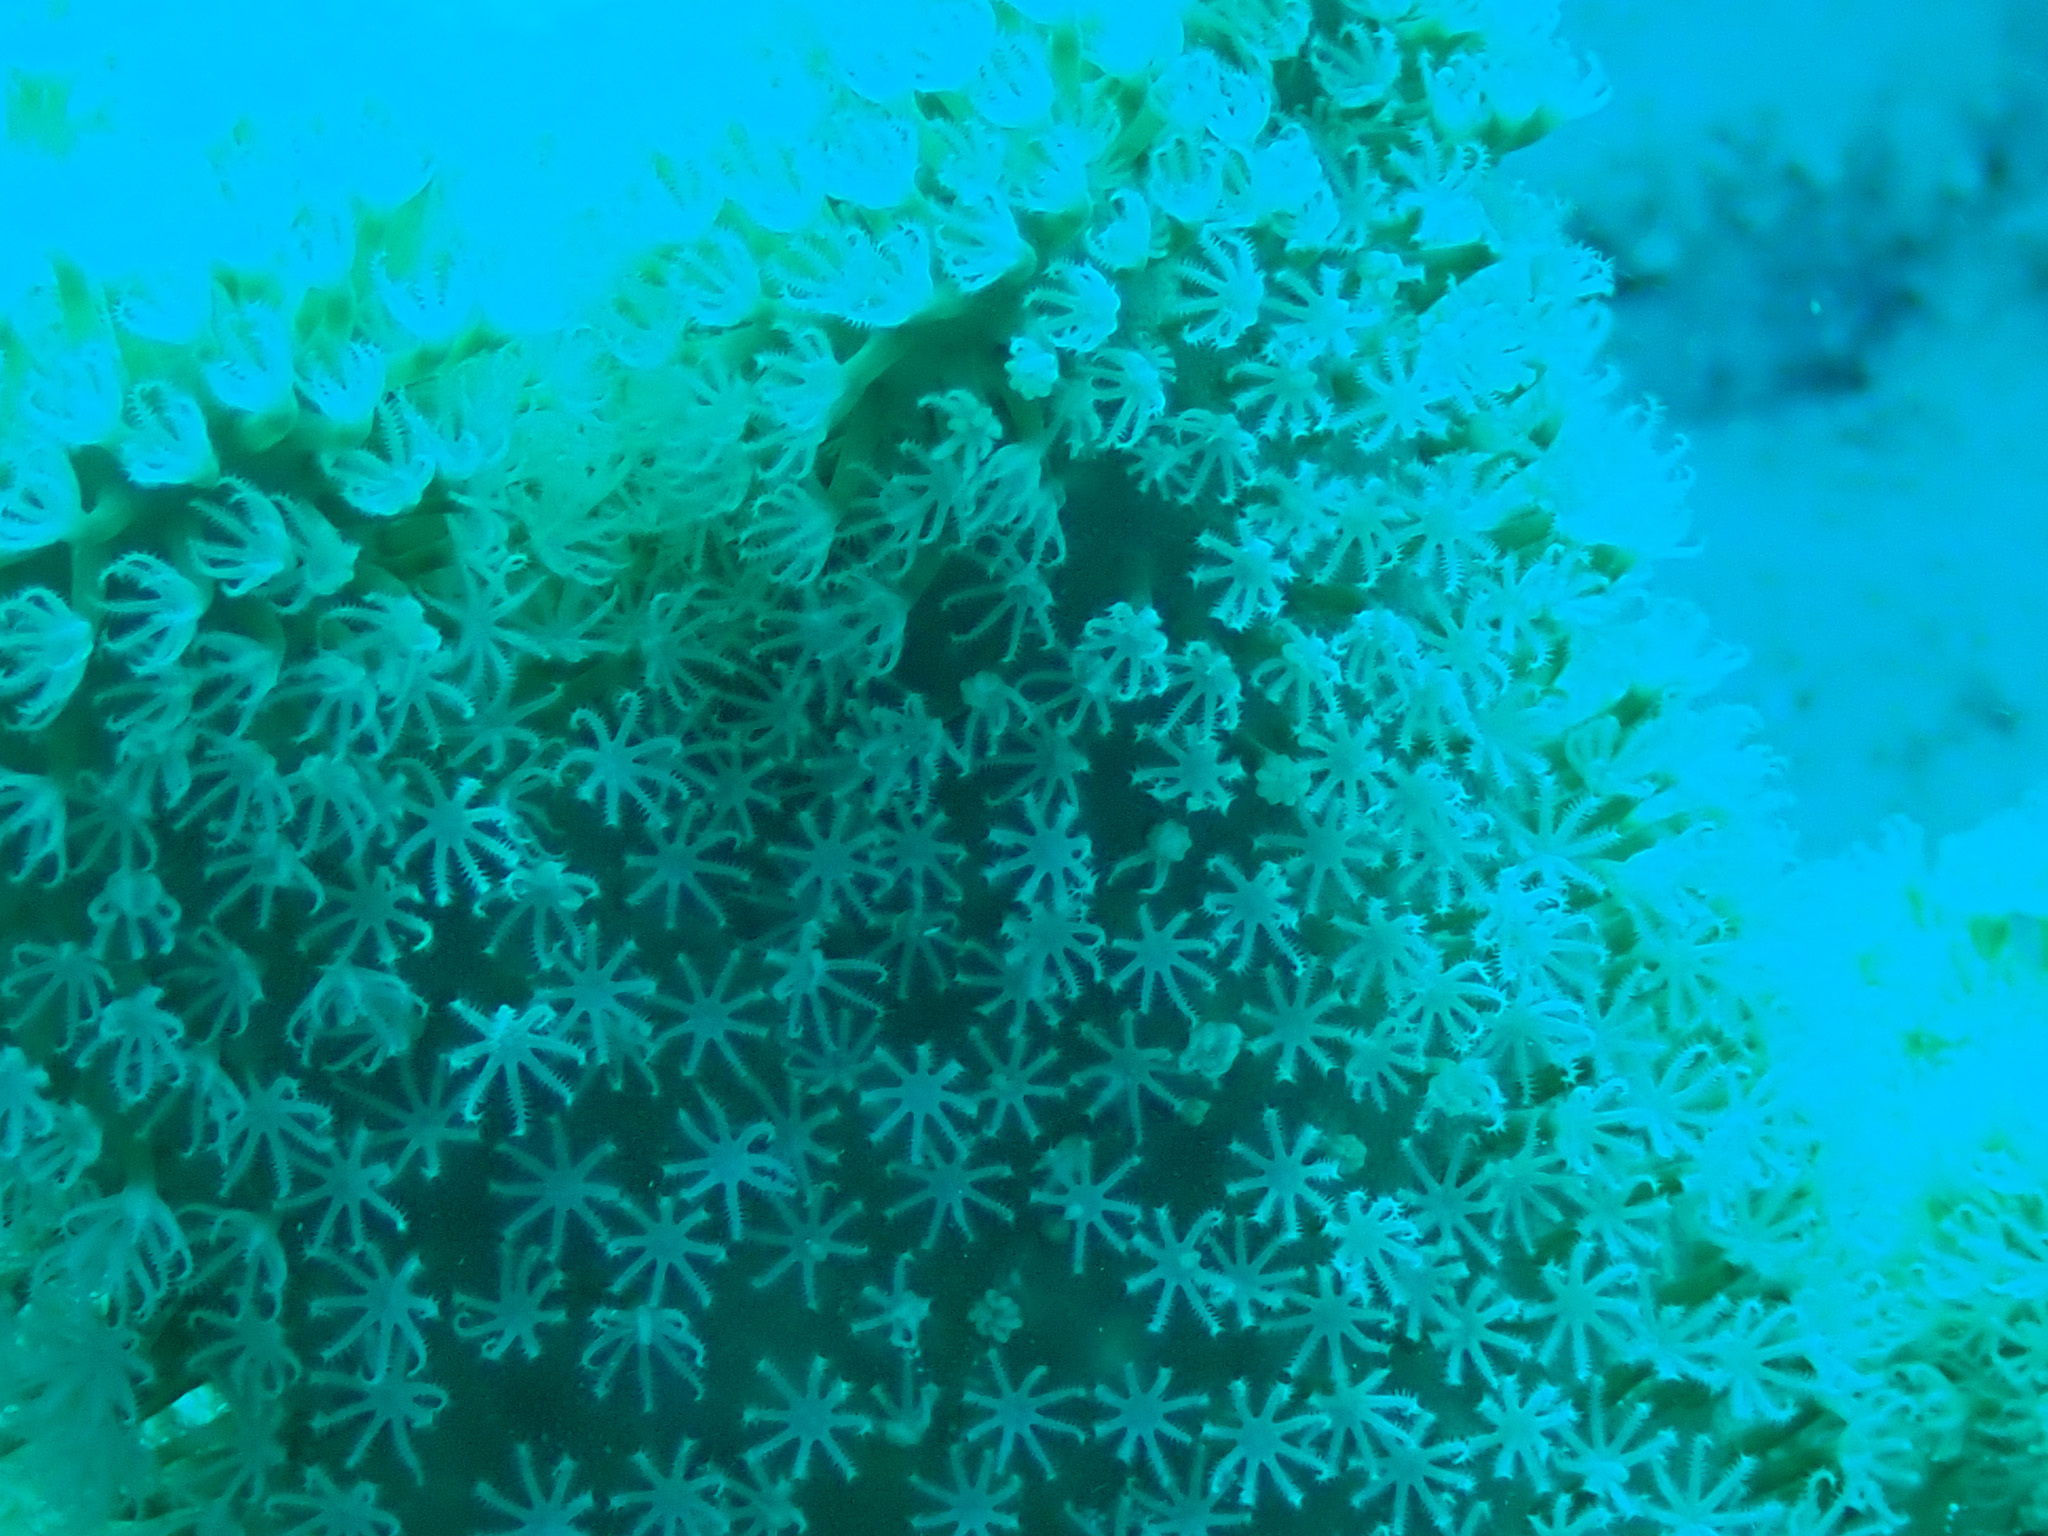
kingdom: Animalia
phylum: Cnidaria
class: Anthozoa
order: Malacalcyonacea
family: Sarcophytidae
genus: Sarcophyton
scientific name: Sarcophyton
